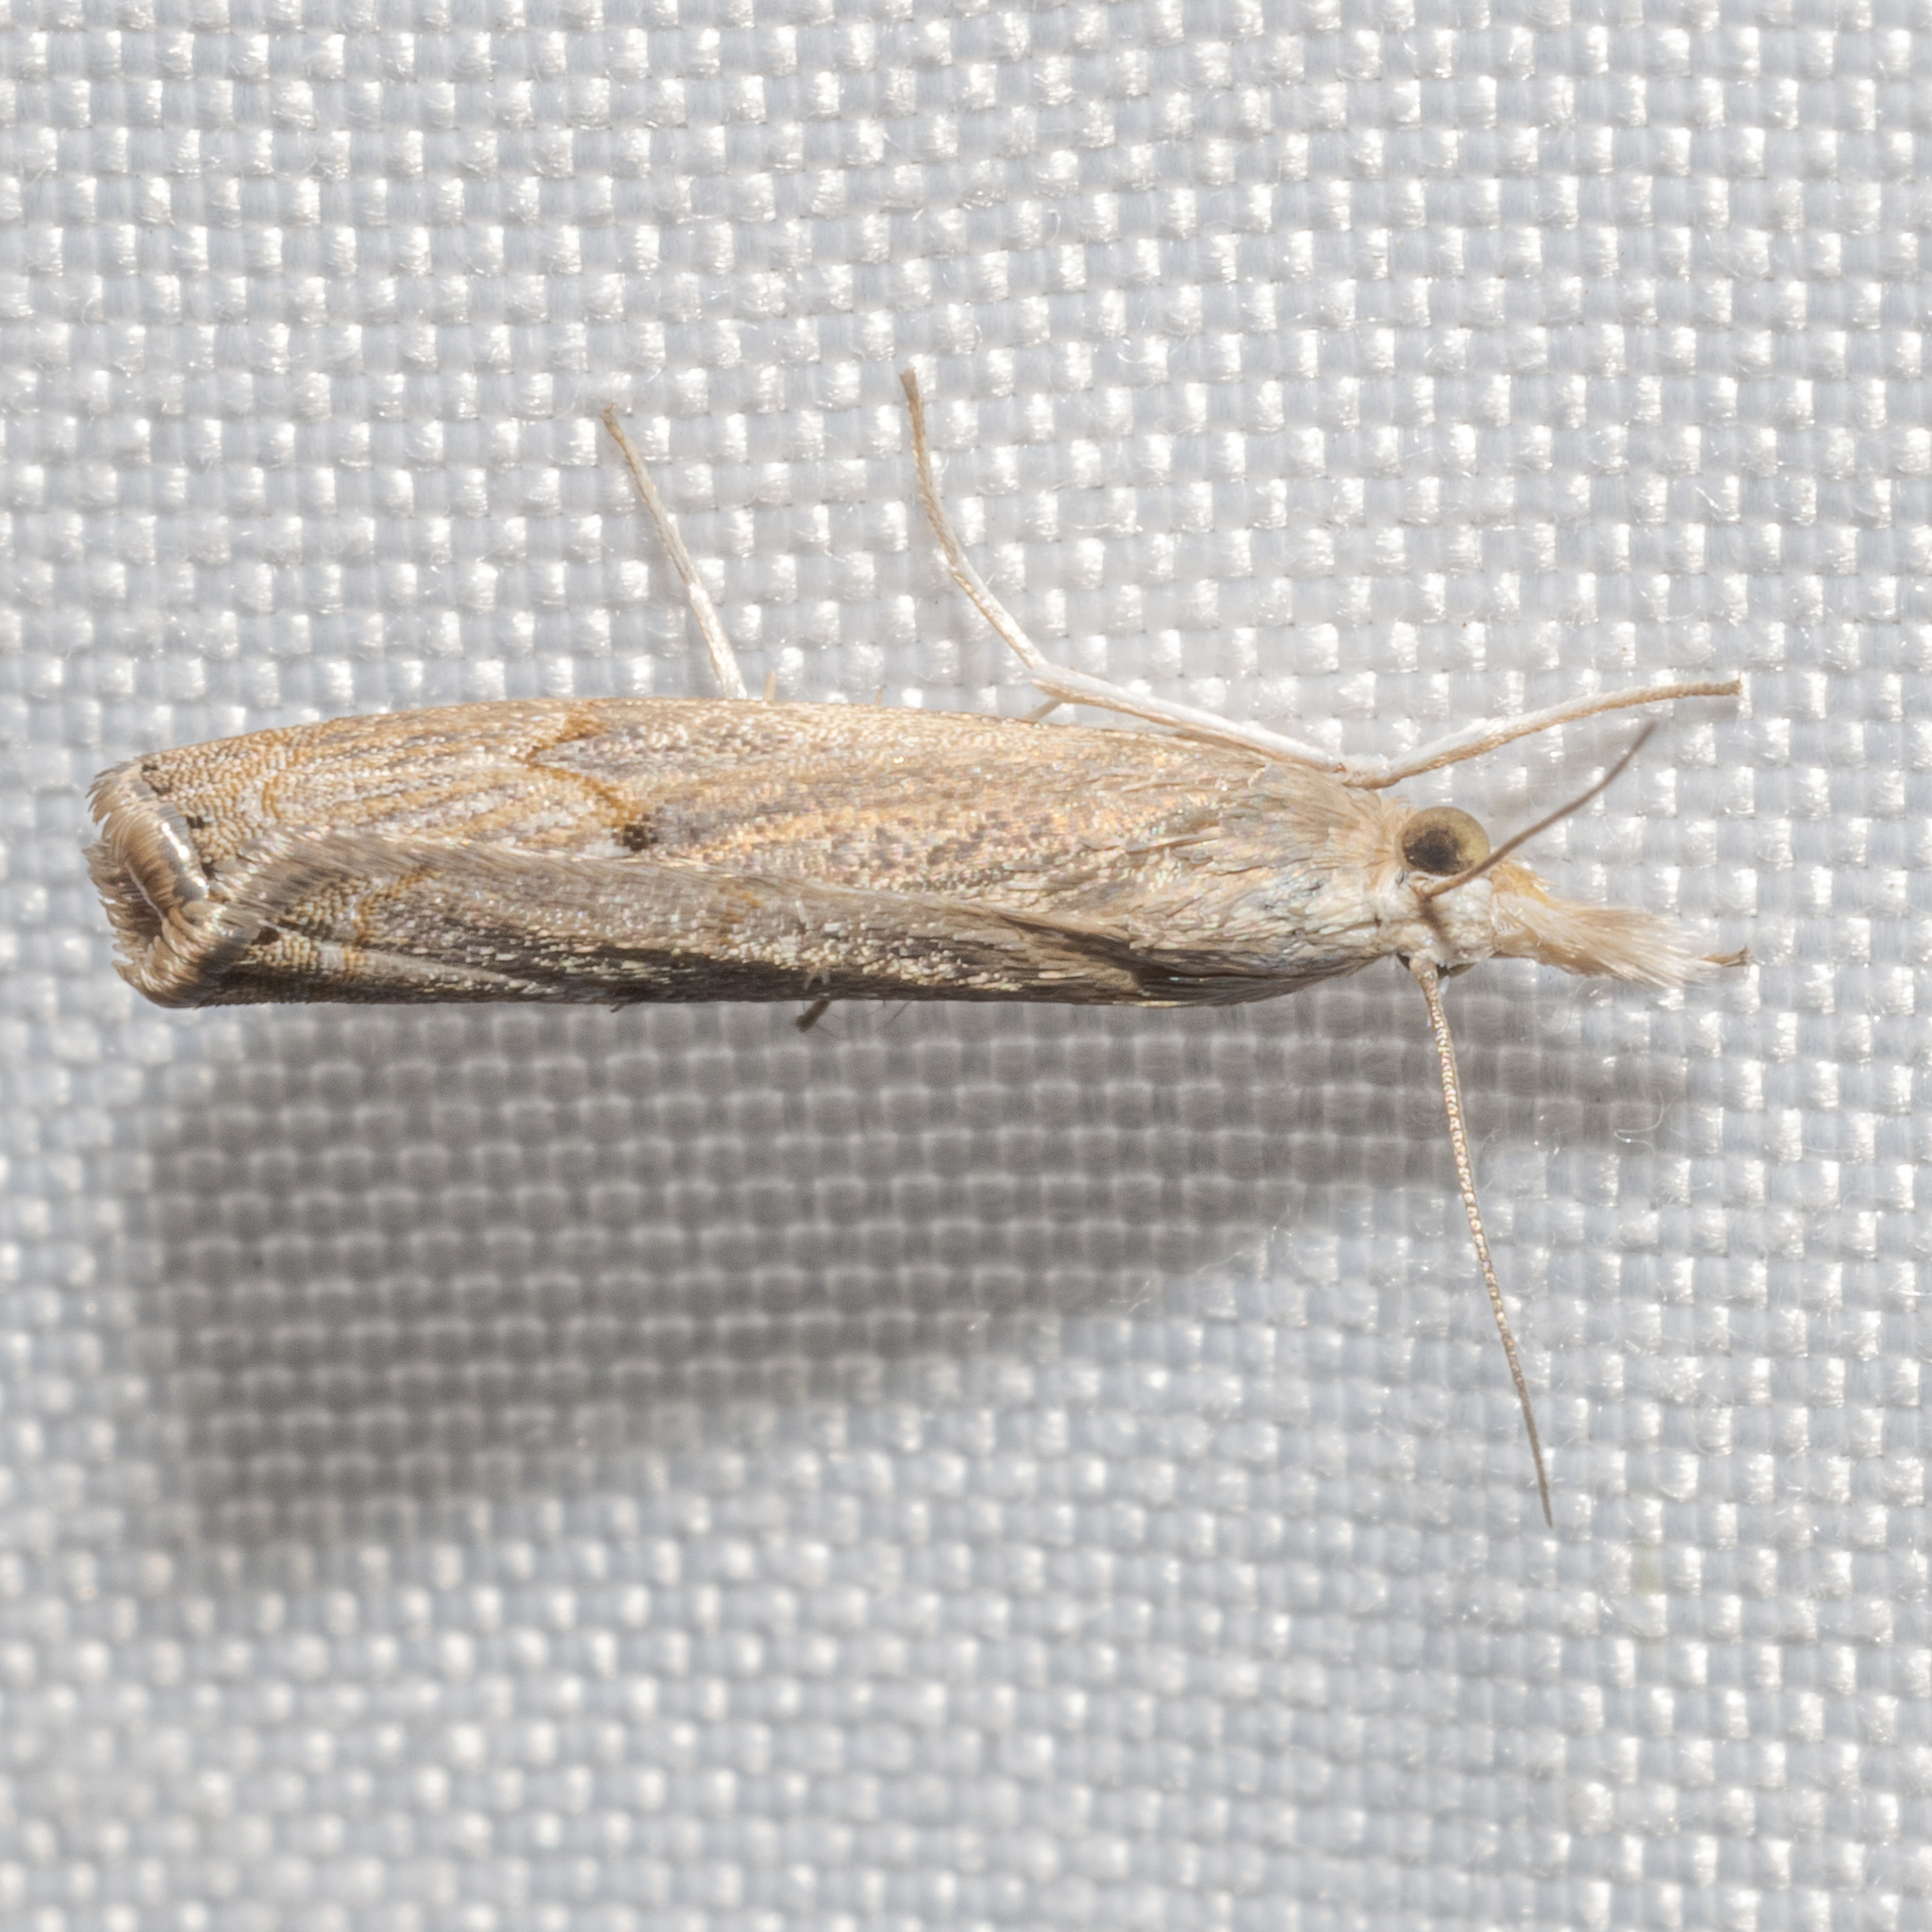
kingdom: Animalia
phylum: Arthropoda
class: Insecta
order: Lepidoptera
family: Crambidae
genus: Parapediasia
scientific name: Parapediasia teterellus
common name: Bluegrass webworm moth
